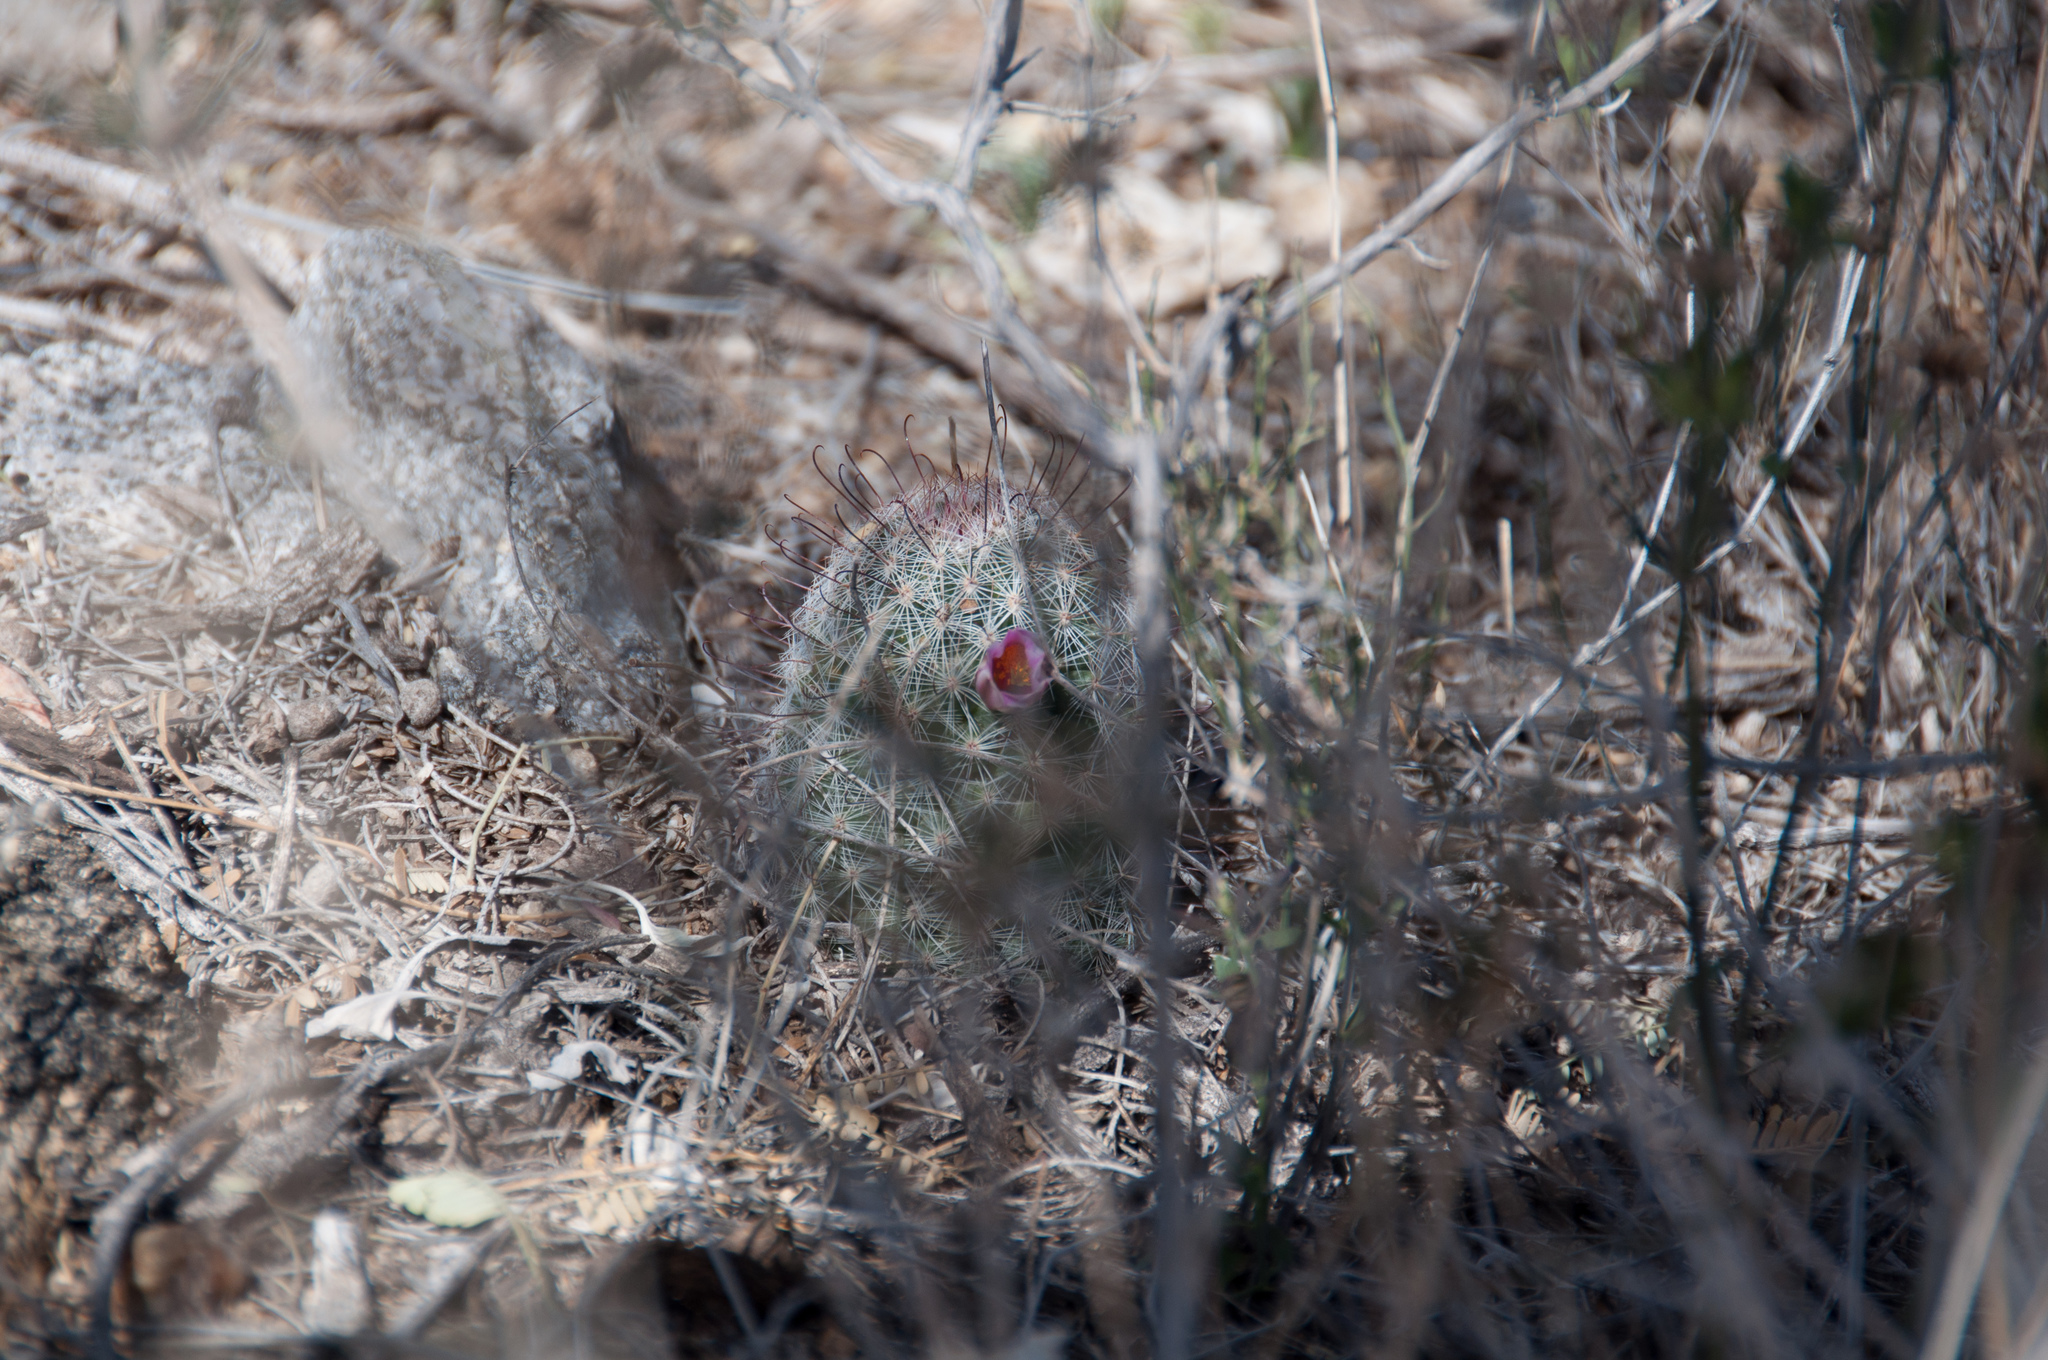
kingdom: Plantae
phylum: Tracheophyta
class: Magnoliopsida
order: Caryophyllales
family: Cactaceae
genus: Cochemiea
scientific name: Cochemiea grahamii
